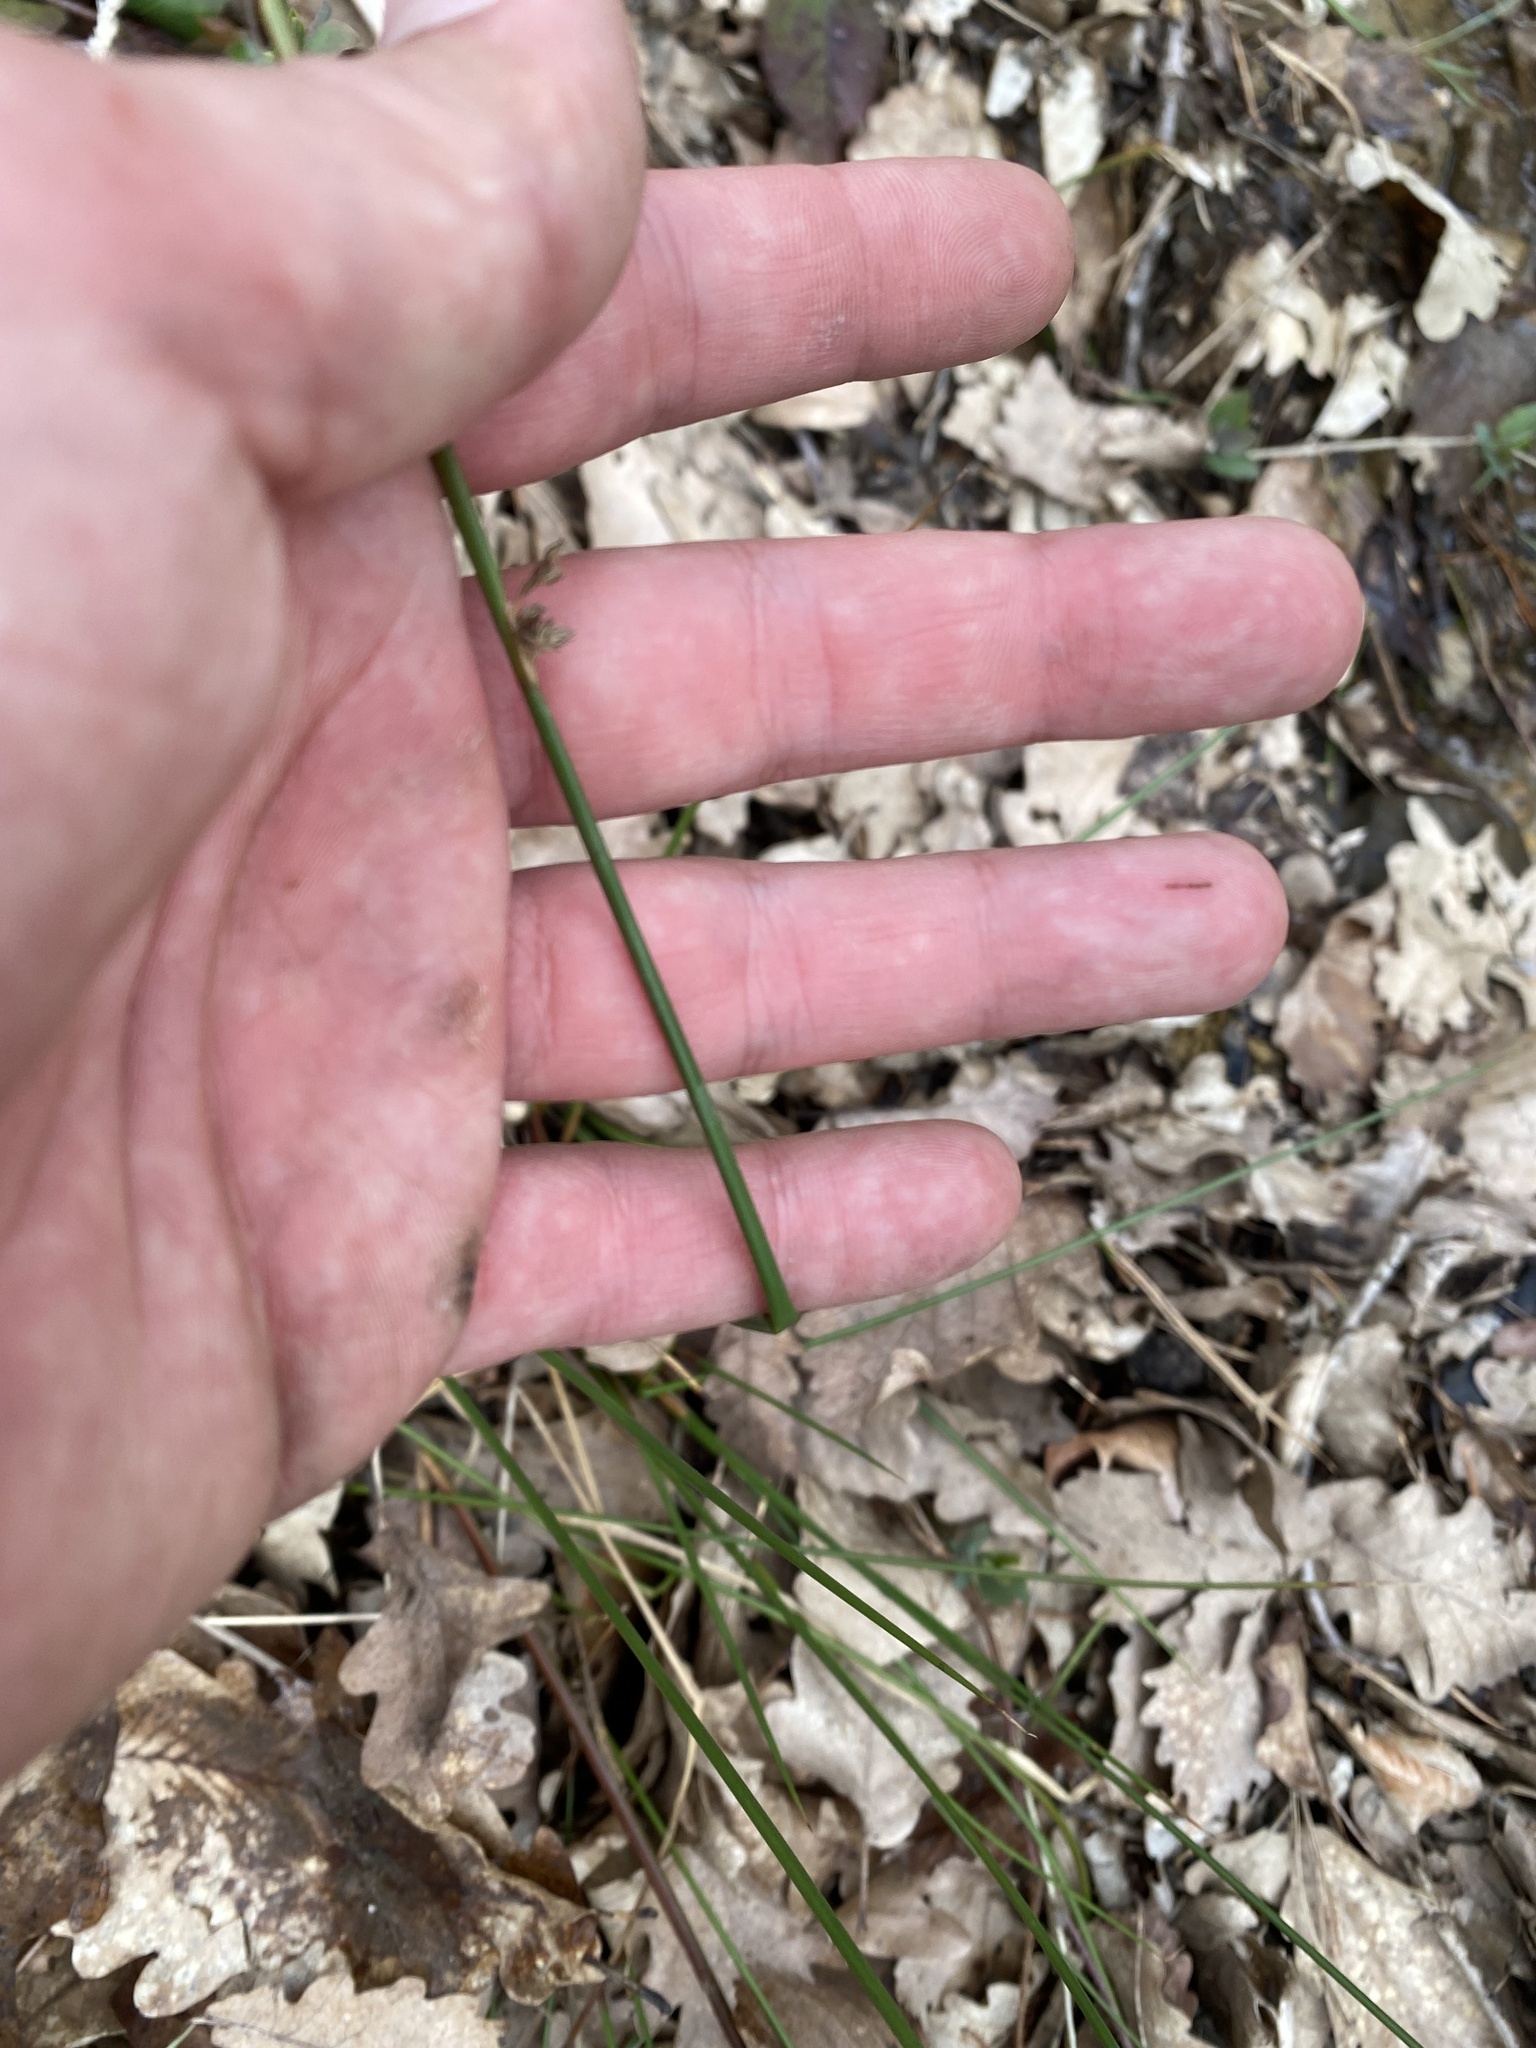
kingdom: Plantae
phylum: Tracheophyta
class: Liliopsida
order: Poales
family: Juncaceae
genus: Juncus
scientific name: Juncus effusus
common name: Soft rush
